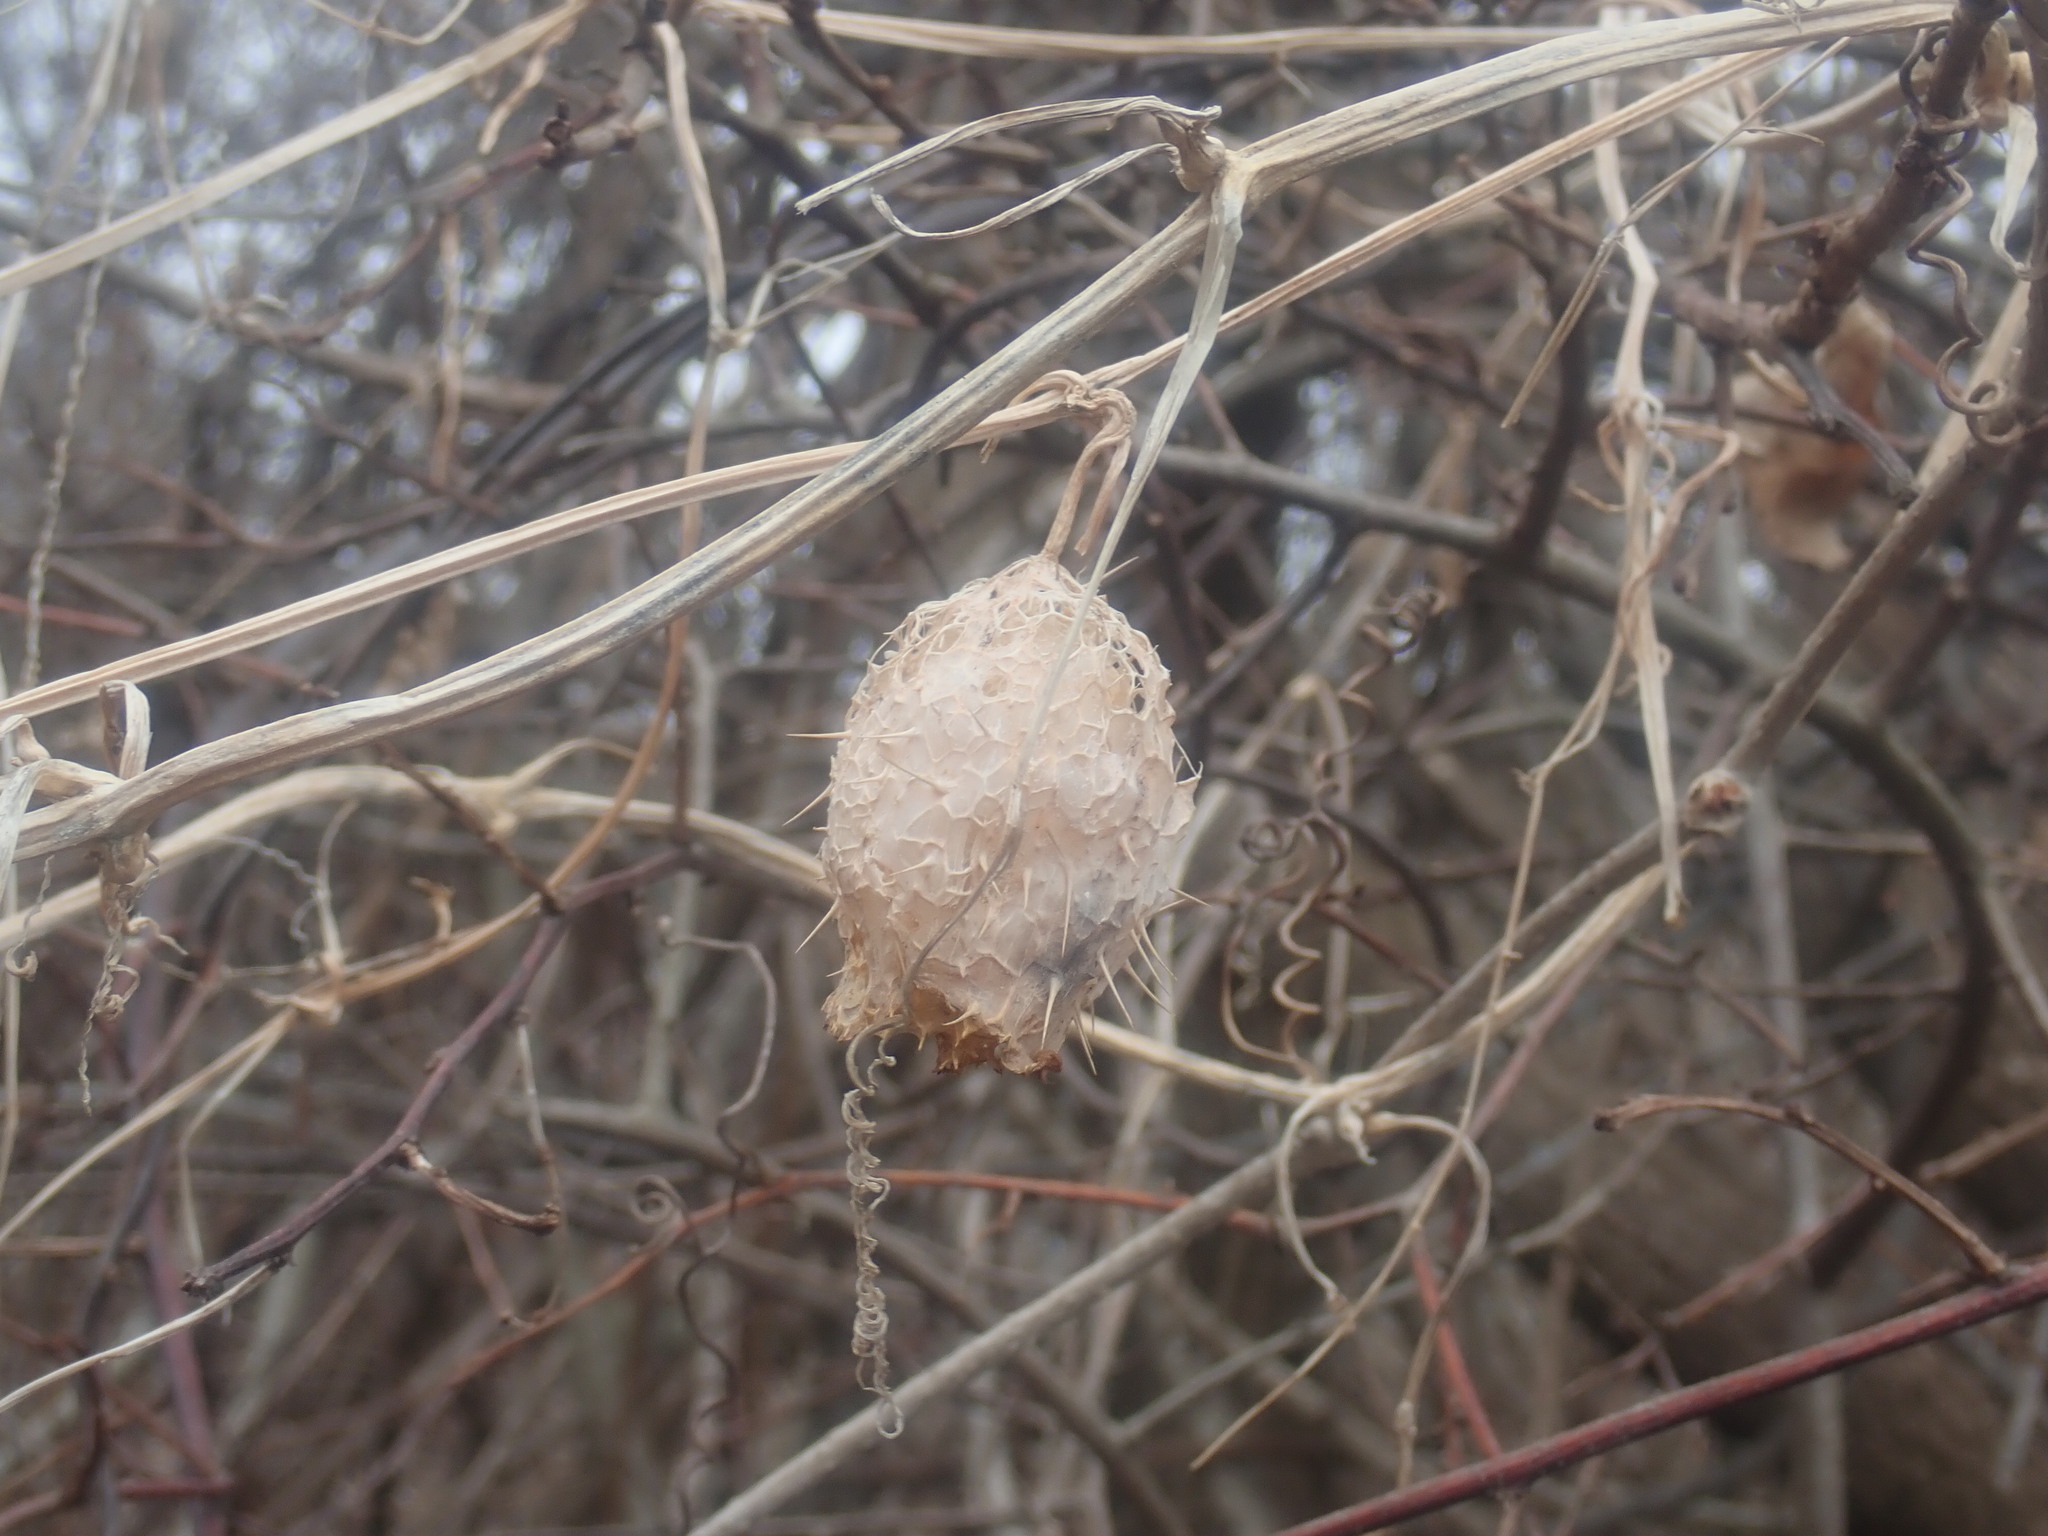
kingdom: Plantae
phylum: Tracheophyta
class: Magnoliopsida
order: Cucurbitales
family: Cucurbitaceae
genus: Echinocystis
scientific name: Echinocystis lobata
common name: Wild cucumber
